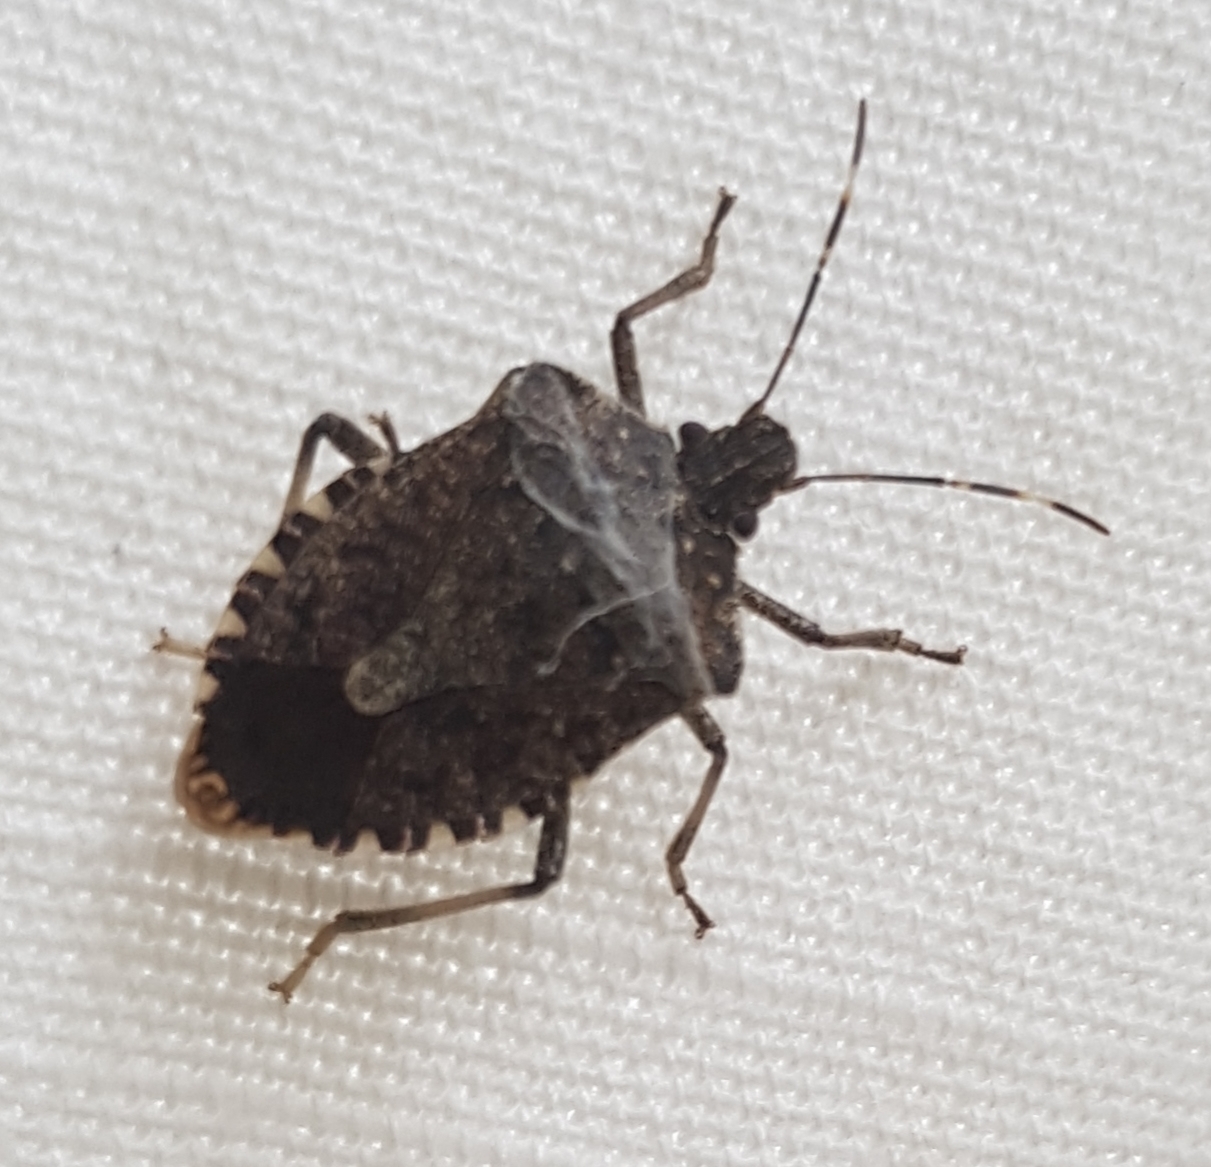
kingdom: Animalia
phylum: Arthropoda
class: Insecta
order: Hemiptera
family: Pentatomidae
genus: Halyomorpha
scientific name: Halyomorpha halys
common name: Brown marmorated stink bug
